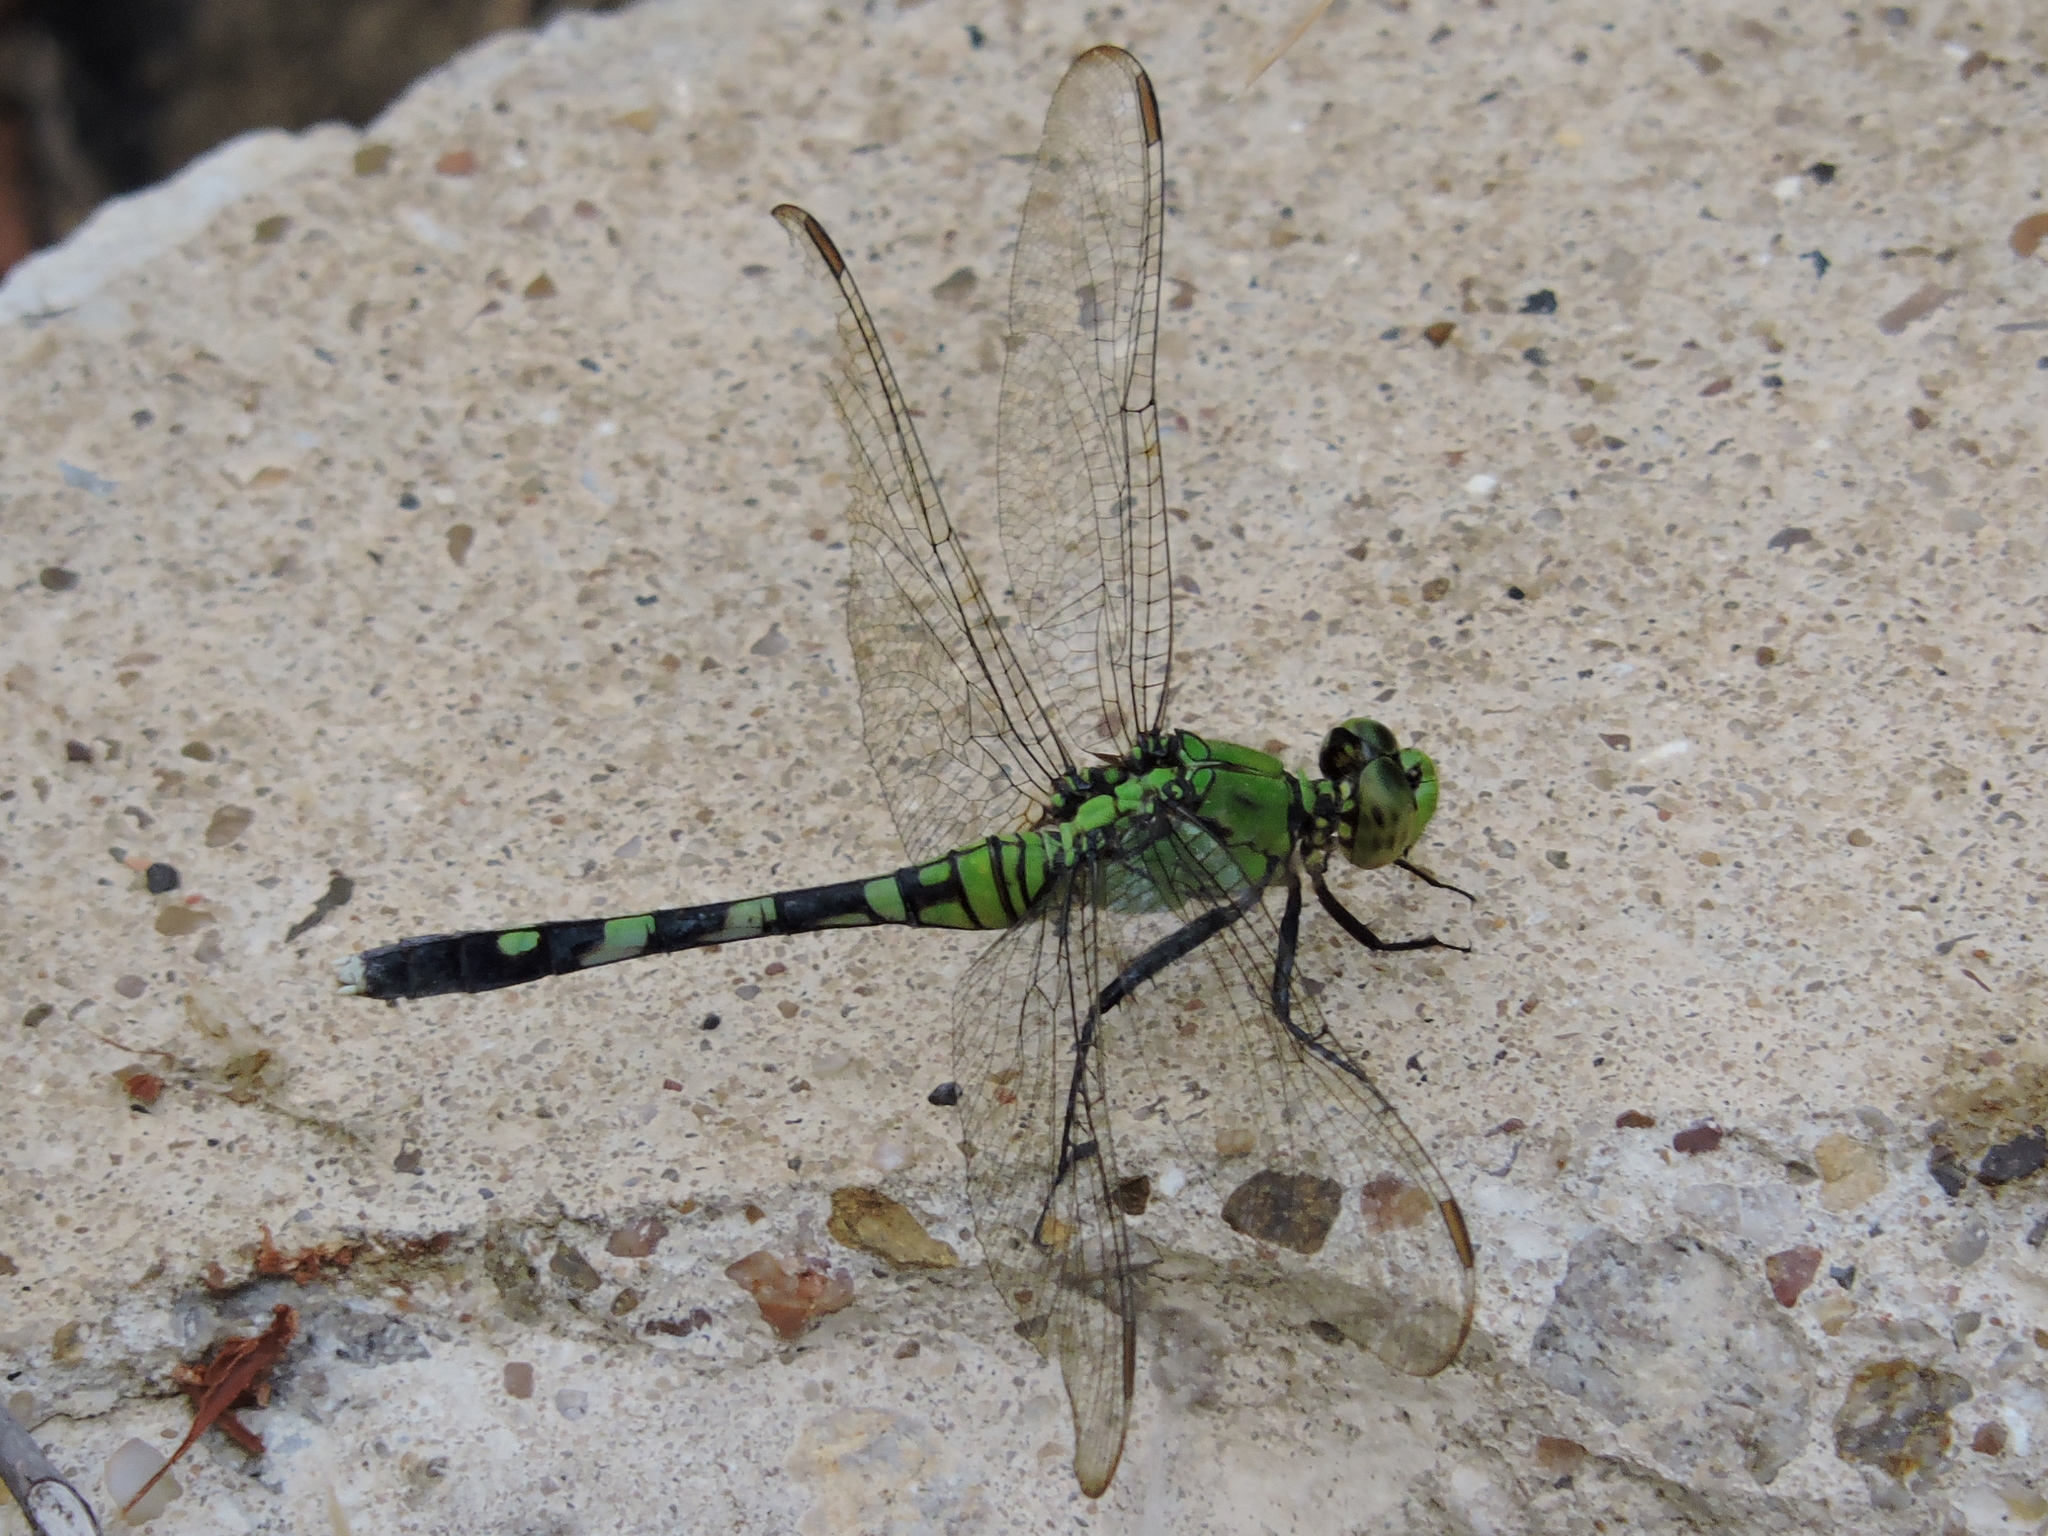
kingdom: Animalia
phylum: Arthropoda
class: Insecta
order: Odonata
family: Libellulidae
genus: Erythemis
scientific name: Erythemis simplicicollis
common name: Eastern pondhawk
